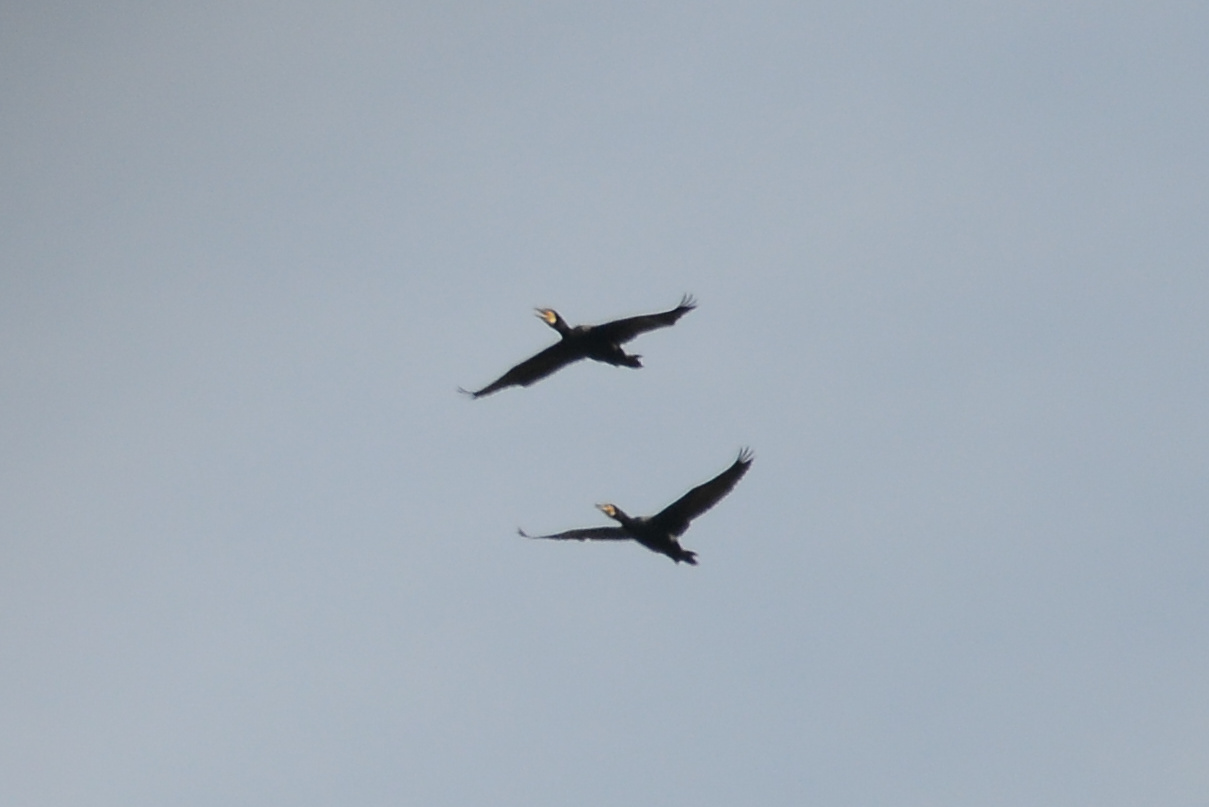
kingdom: Animalia
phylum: Chordata
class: Aves
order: Suliformes
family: Phalacrocoracidae
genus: Phalacrocorax
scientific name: Phalacrocorax carbo
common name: Great cormorant
